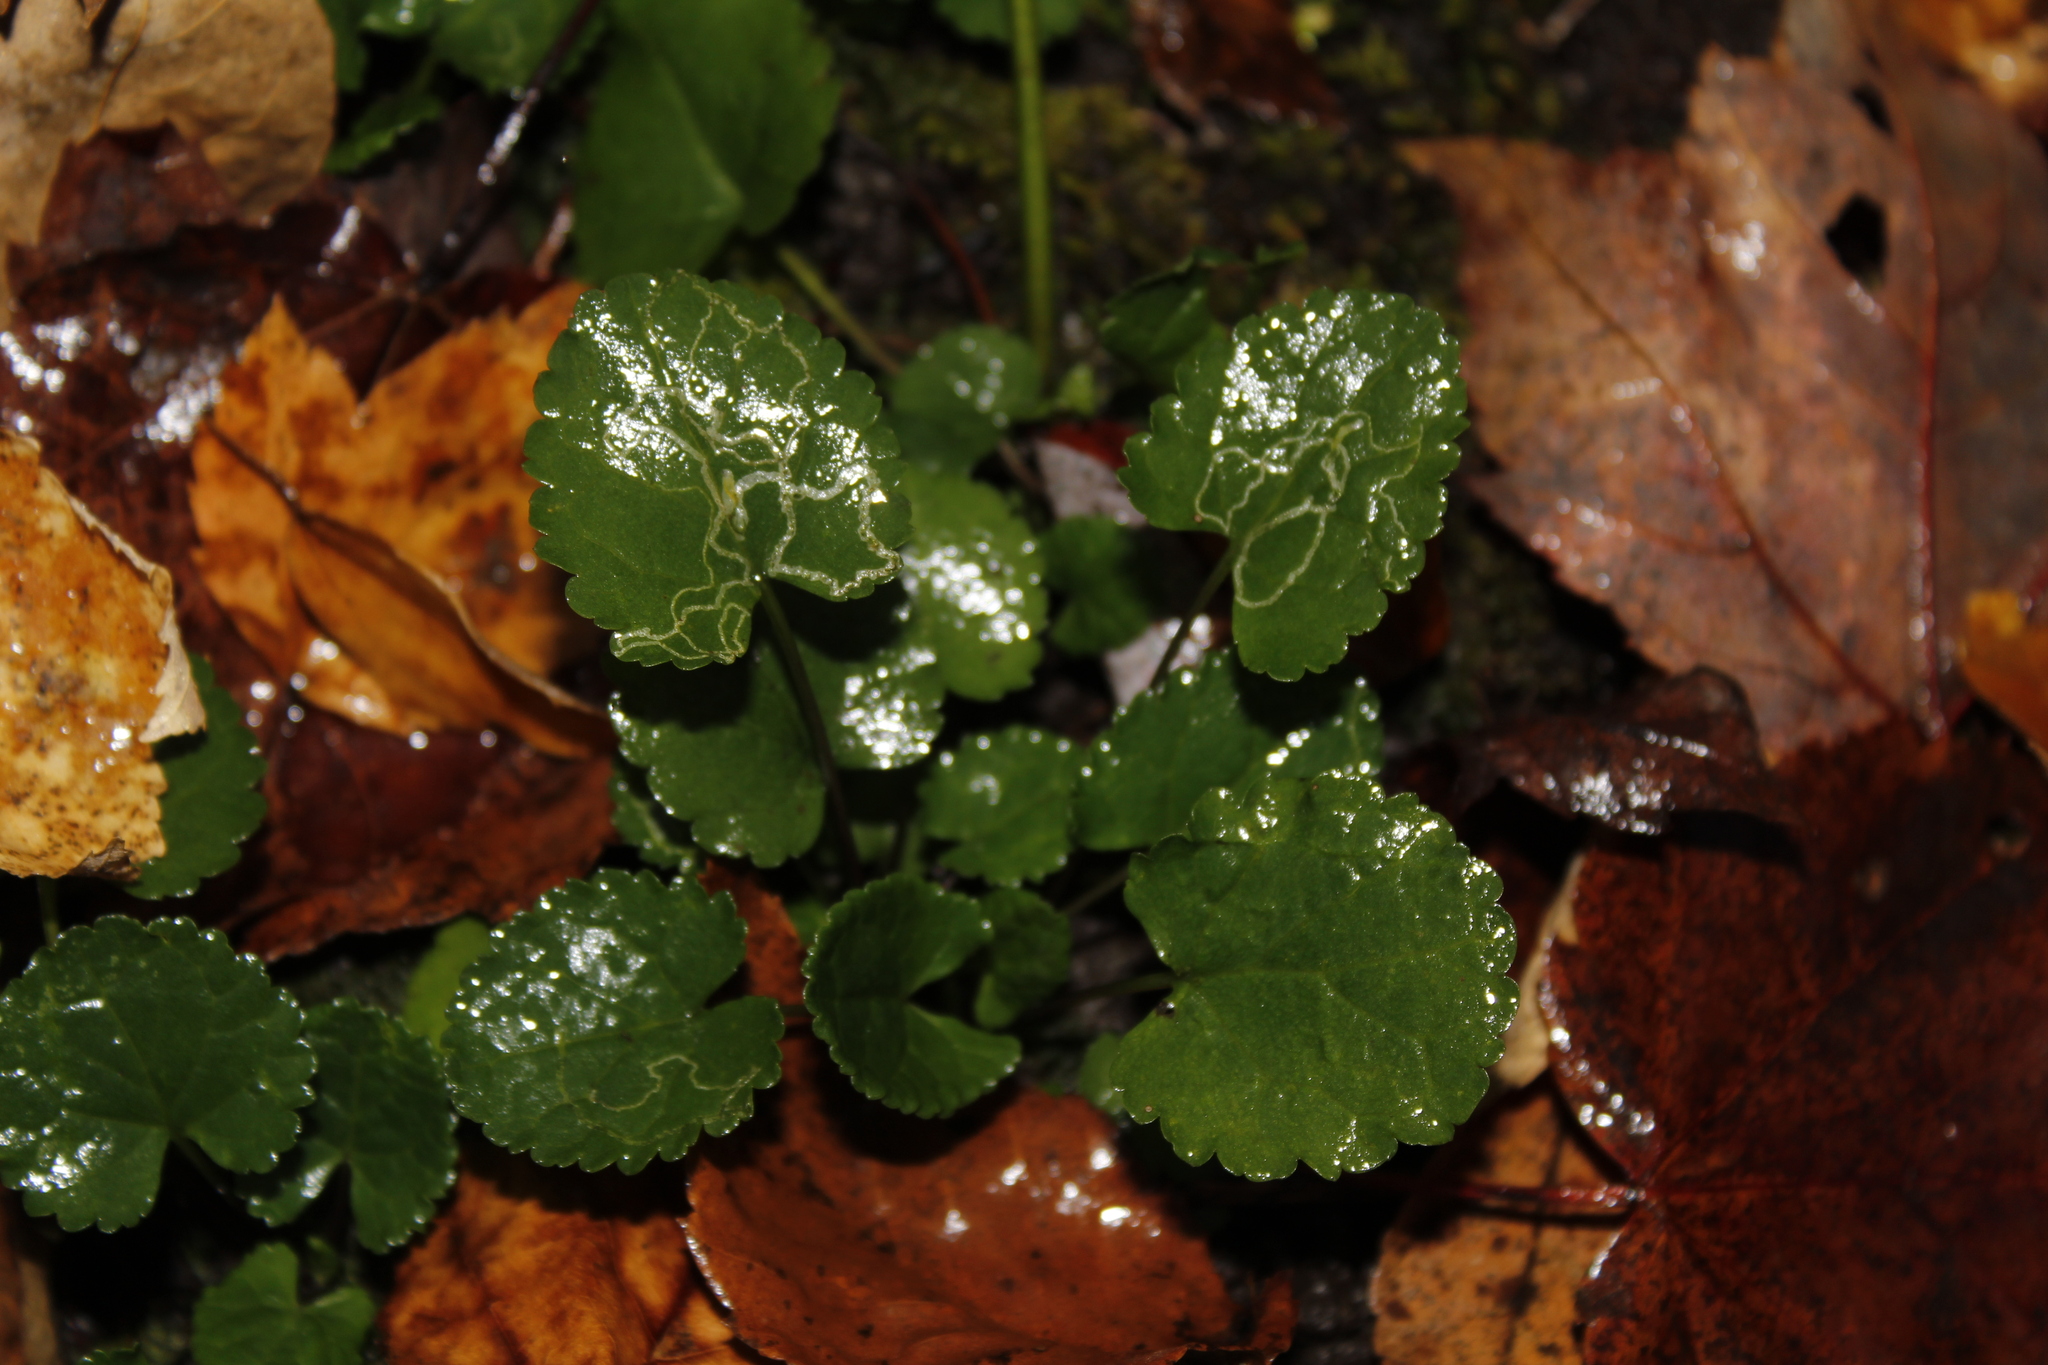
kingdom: Animalia
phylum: Arthropoda
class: Insecta
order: Lepidoptera
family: Gracillariidae
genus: Phyllocnistis
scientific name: Phyllocnistis insignis
